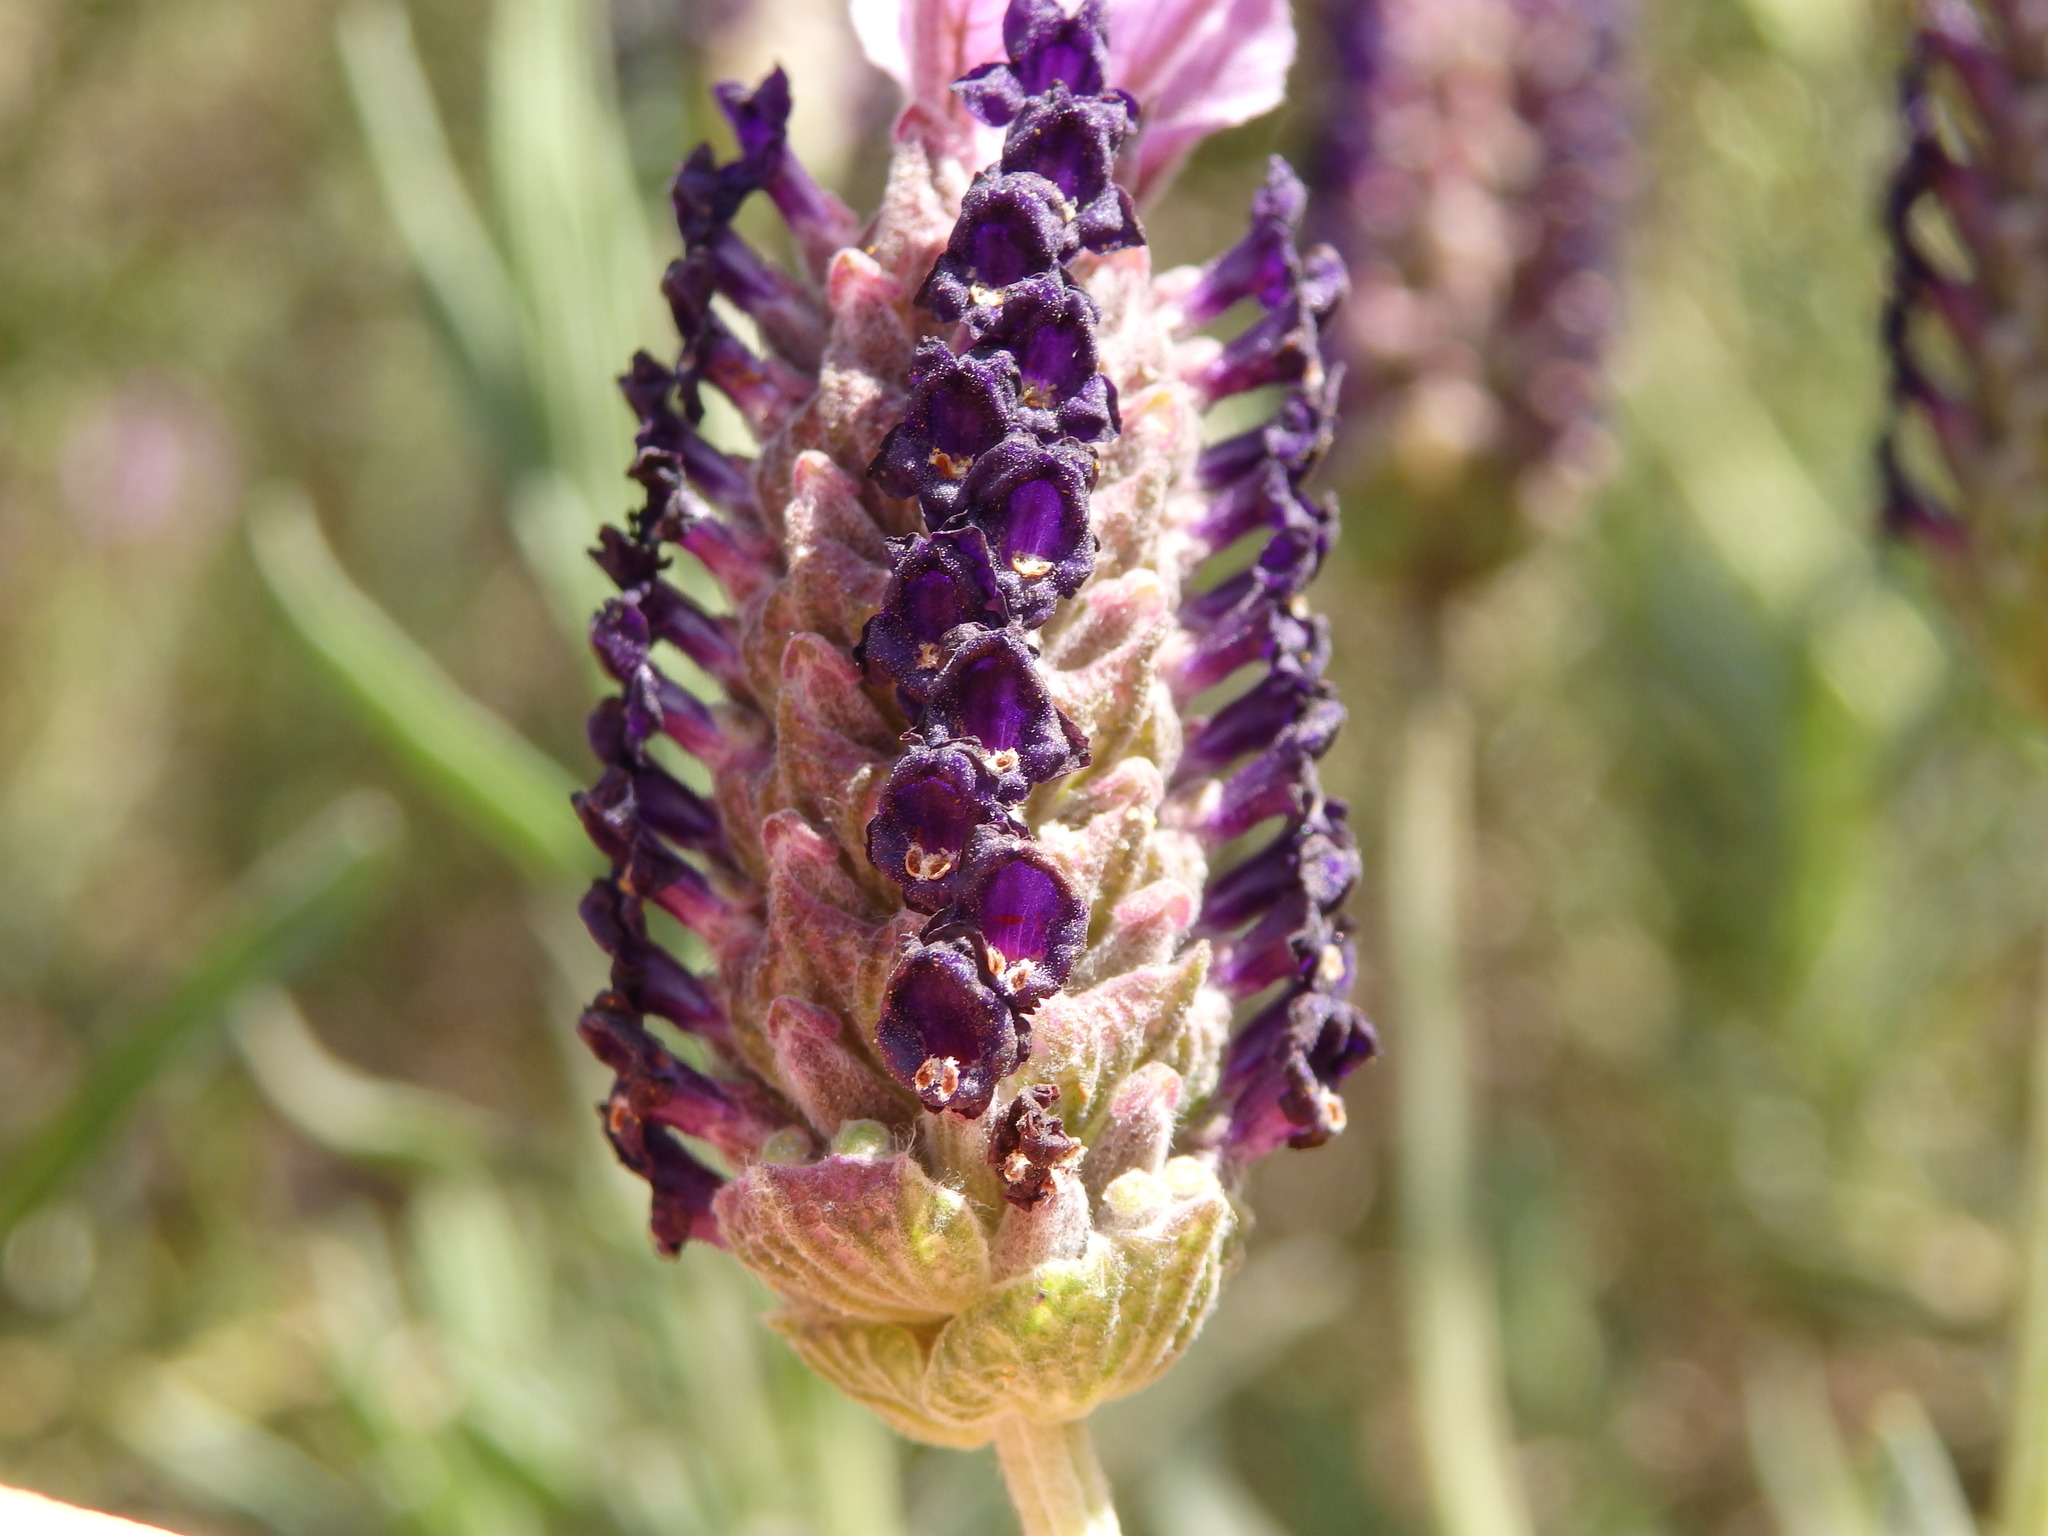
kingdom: Plantae
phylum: Tracheophyta
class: Magnoliopsida
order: Lamiales
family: Lamiaceae
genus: Lavandula
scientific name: Lavandula pedunculata
